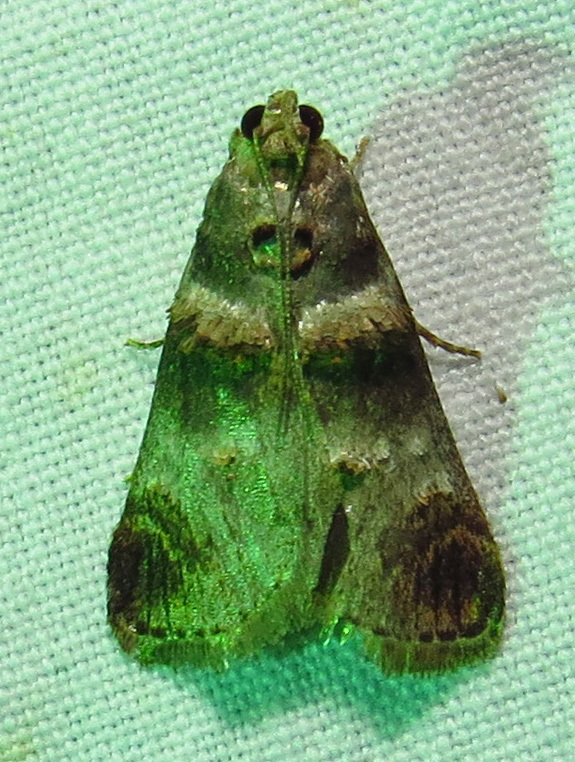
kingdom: Animalia
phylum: Arthropoda
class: Insecta
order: Lepidoptera
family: Pyralidae
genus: Oneida
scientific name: Oneida lunulalis
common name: Orange-tufted oneida moth
